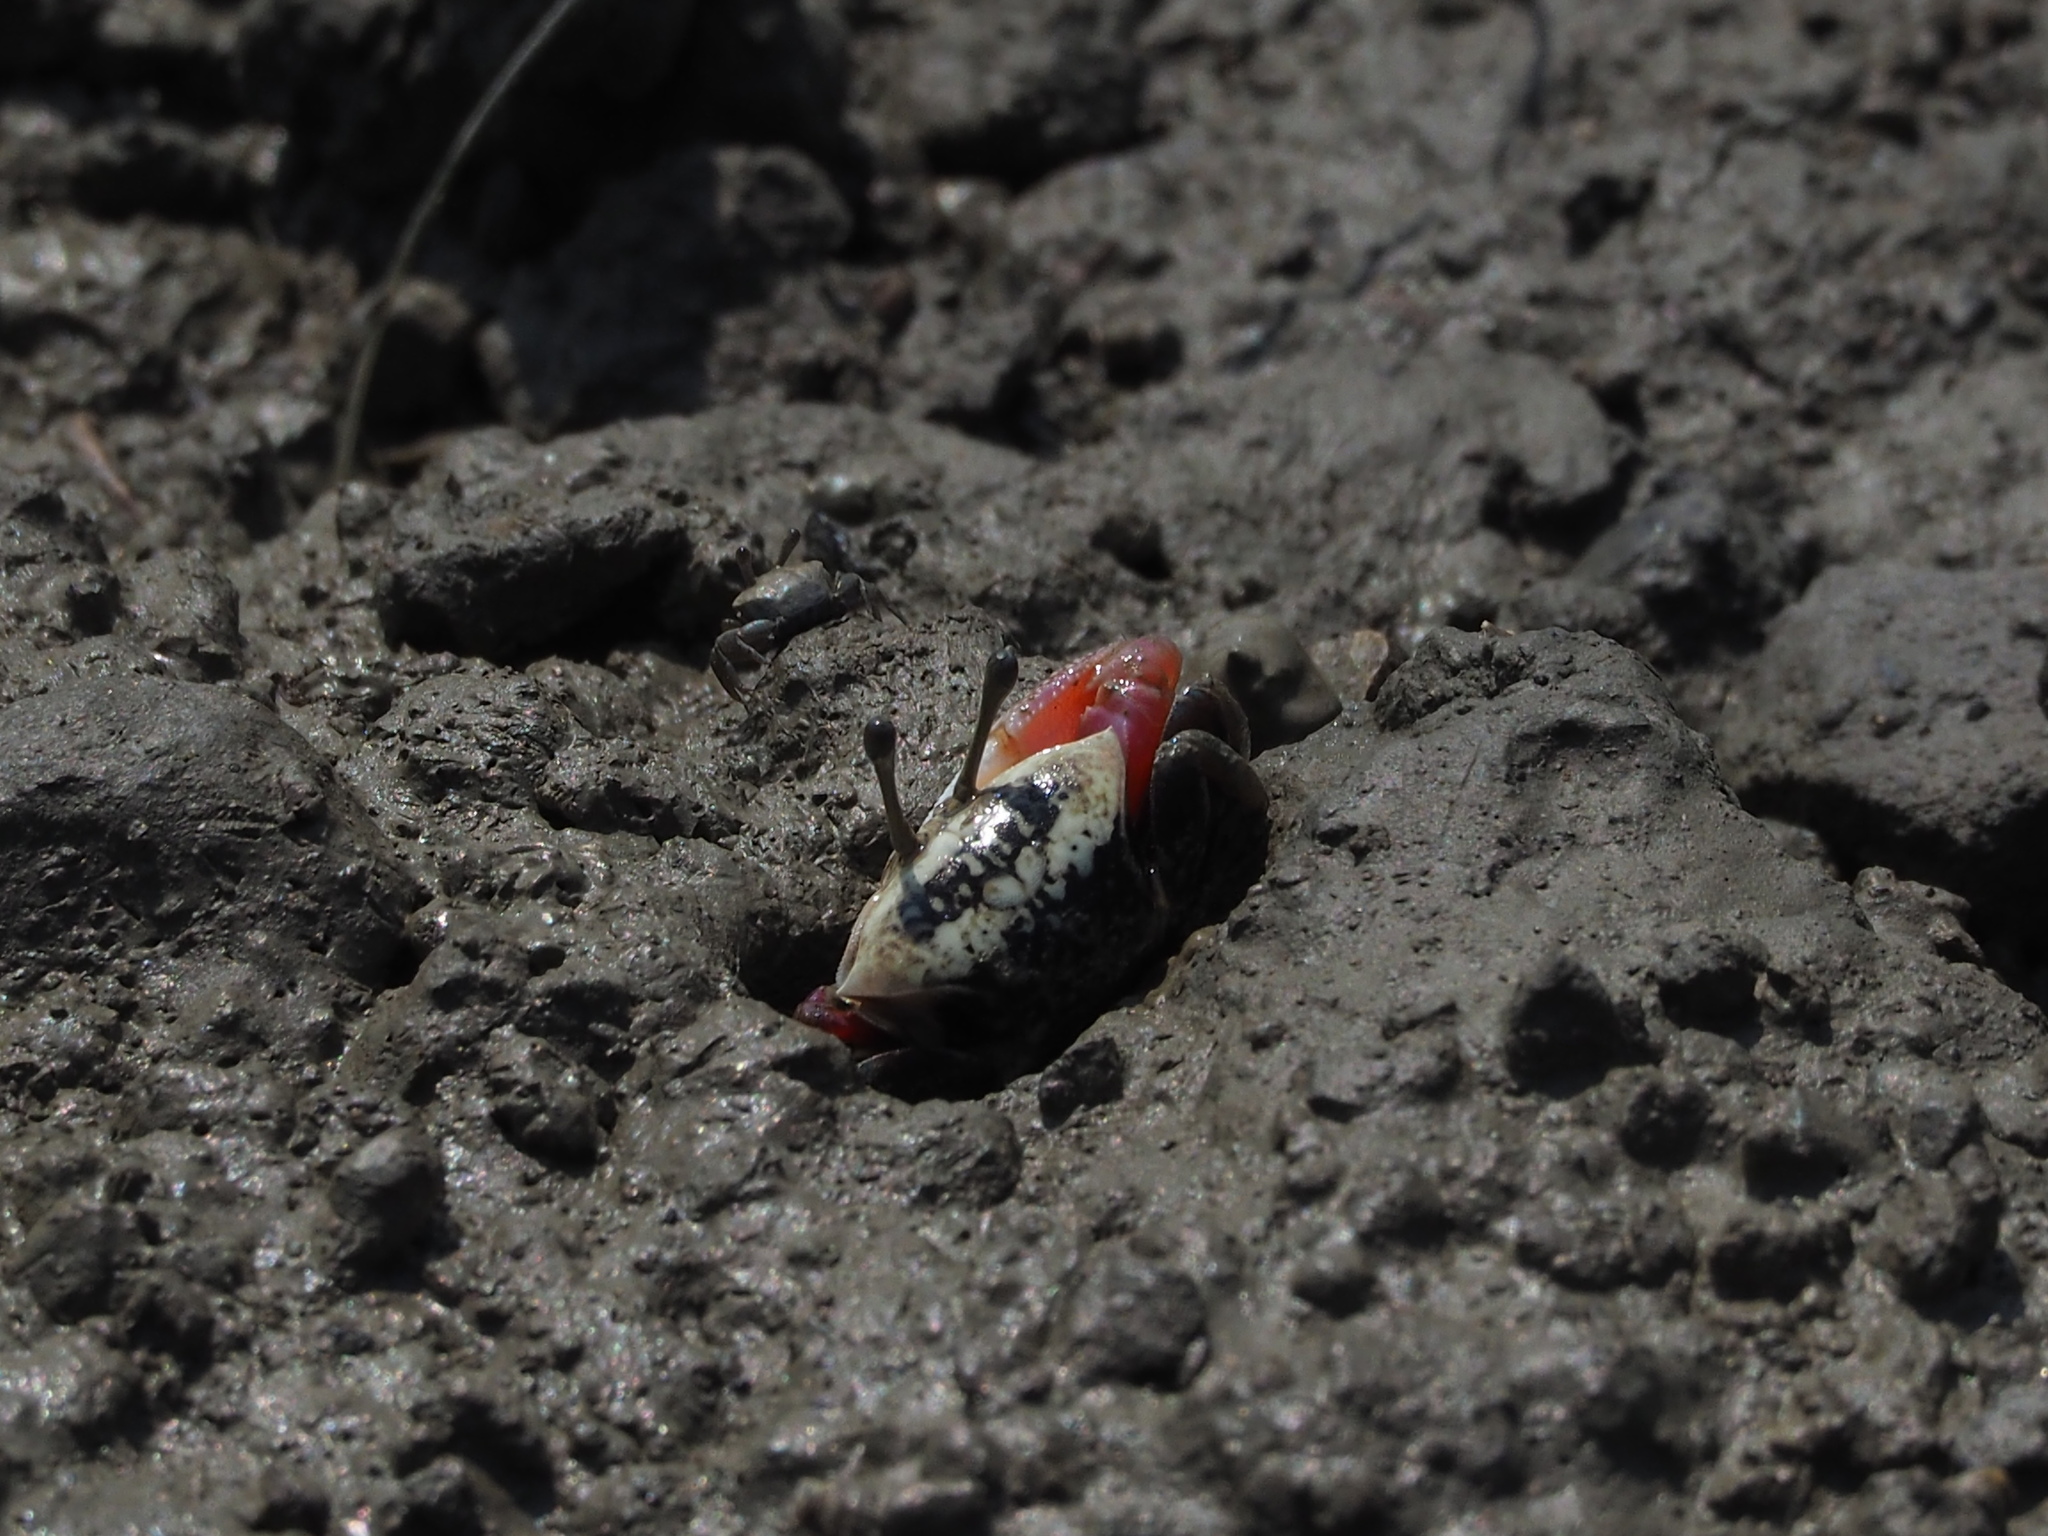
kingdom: Animalia
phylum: Arthropoda
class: Malacostraca
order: Decapoda
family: Ocypodidae
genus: Tubuca
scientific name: Tubuca arcuata
